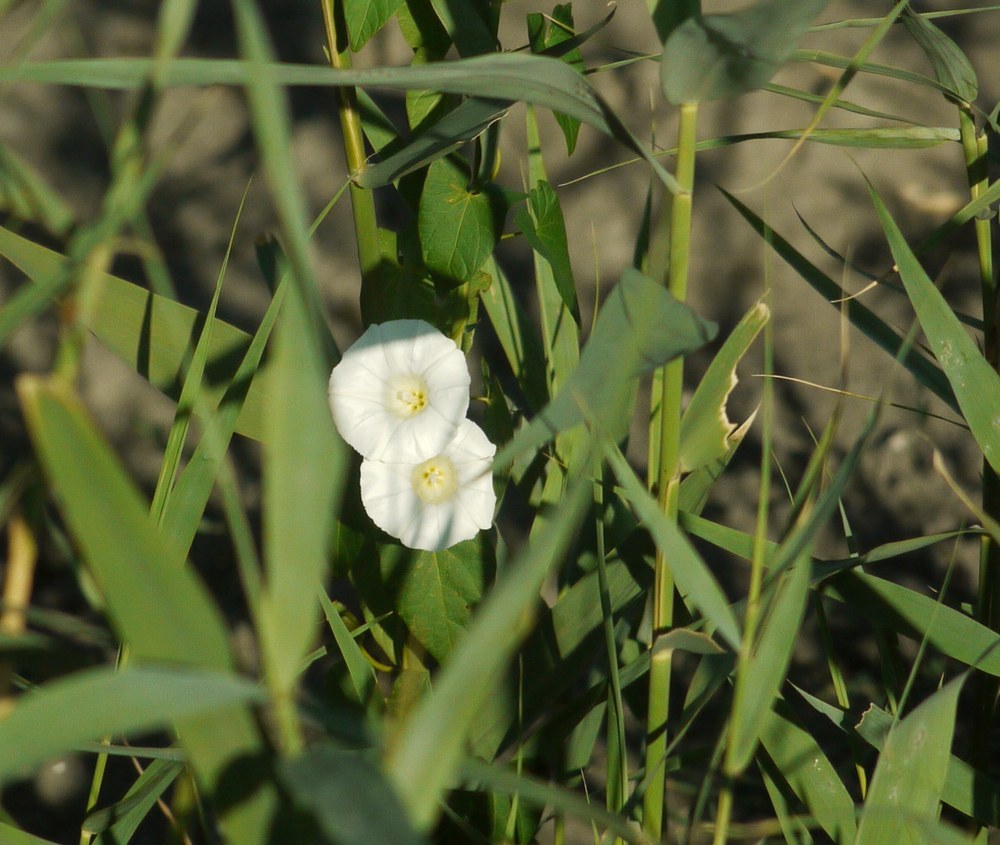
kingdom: Plantae
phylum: Tracheophyta
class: Magnoliopsida
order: Solanales
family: Convolvulaceae
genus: Calystegia
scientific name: Calystegia sepium
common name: Hedge bindweed
